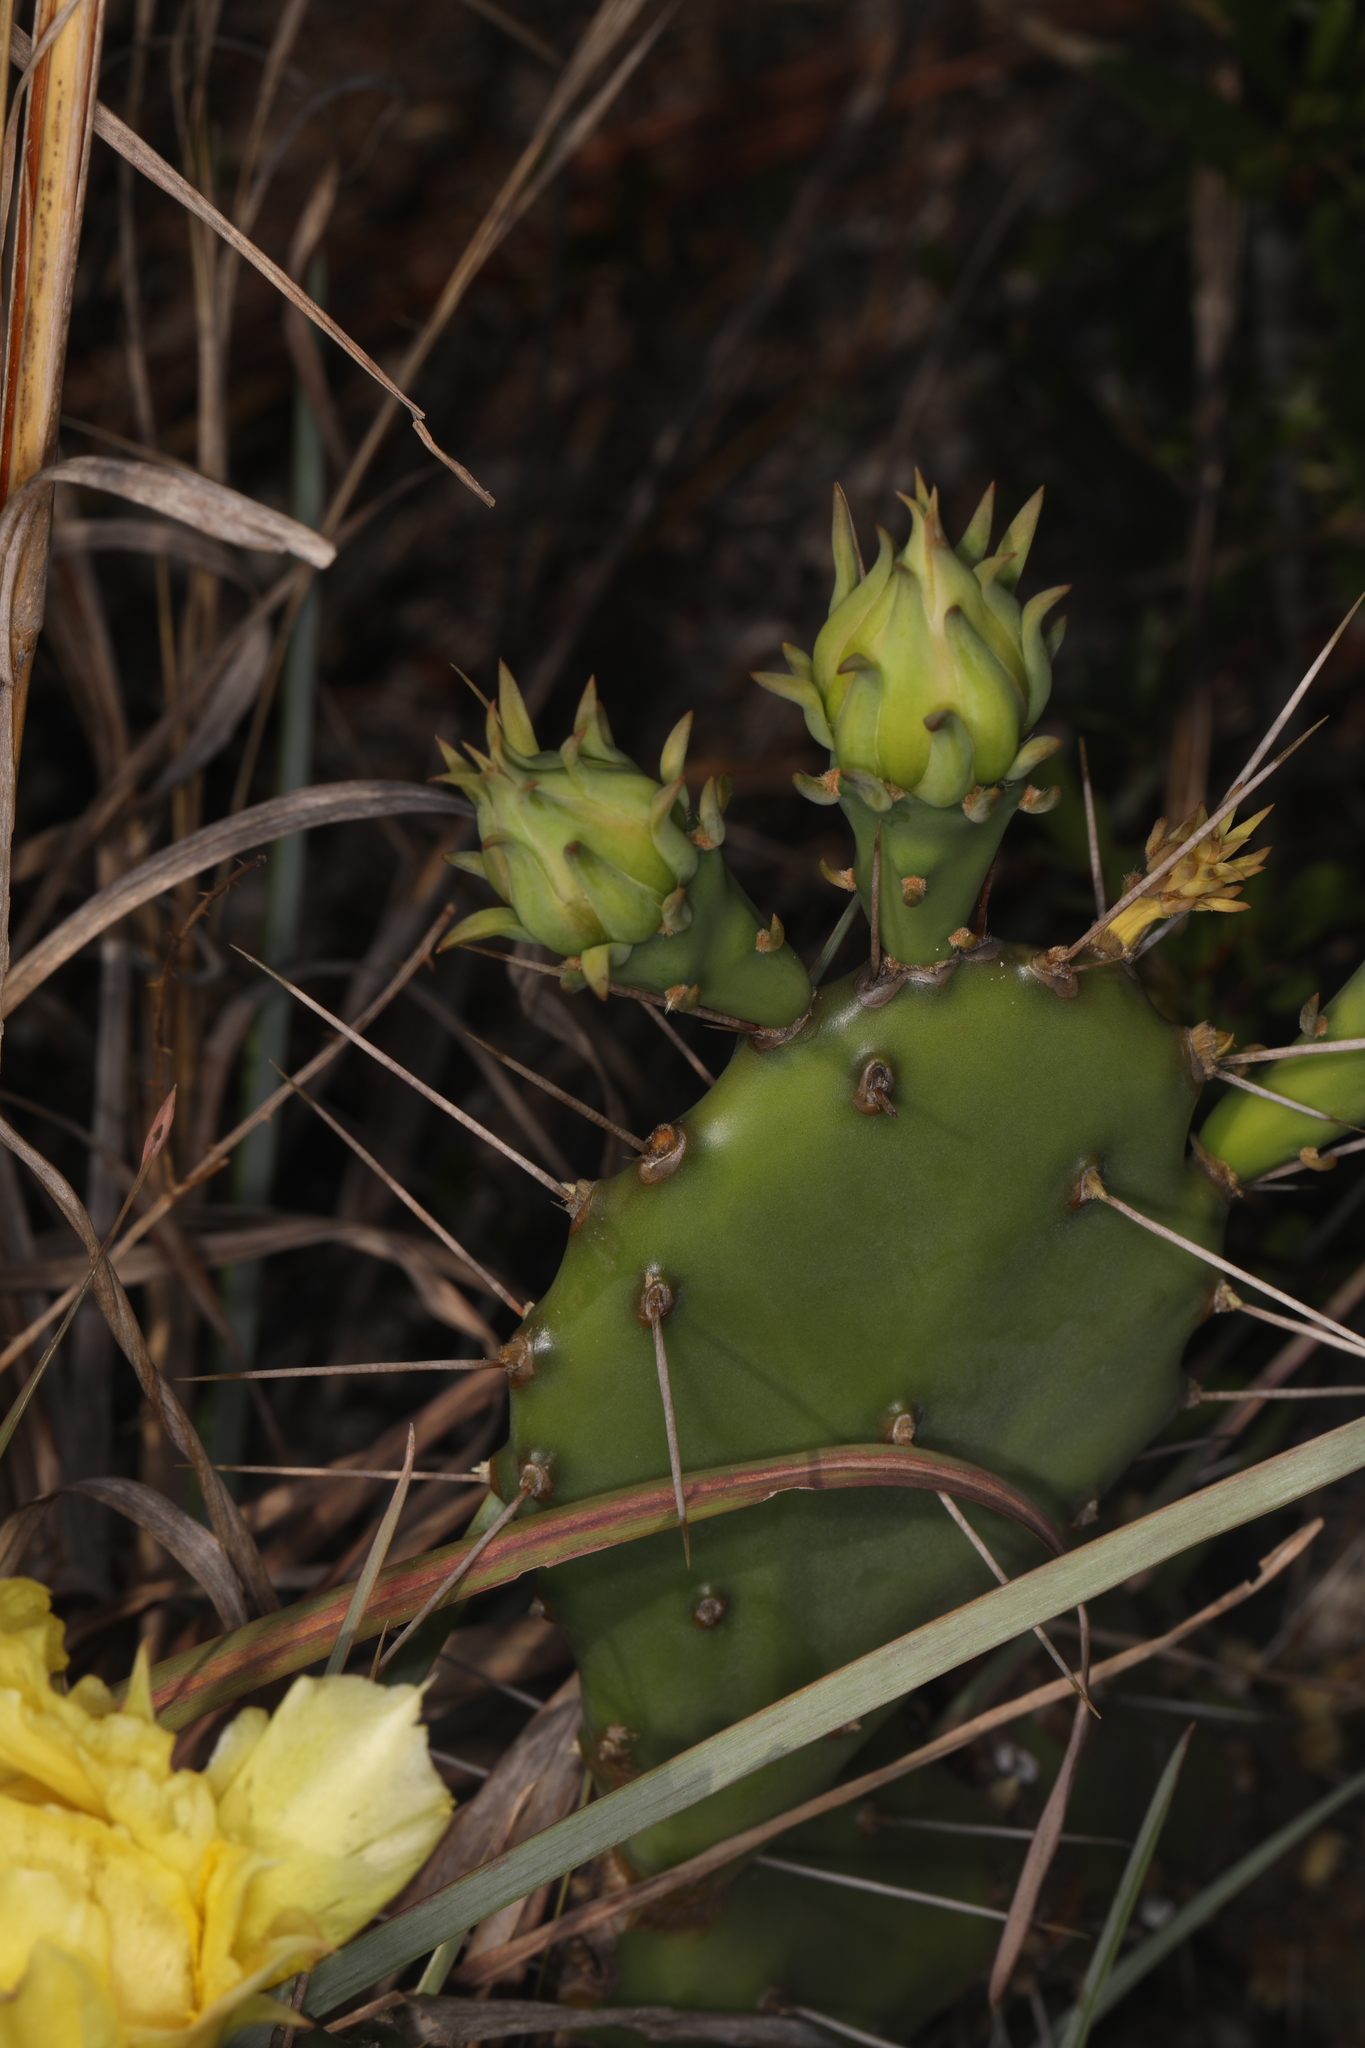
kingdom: Plantae
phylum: Tracheophyta
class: Magnoliopsida
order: Caryophyllales
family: Cactaceae
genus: Opuntia
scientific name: Opuntia austrina
